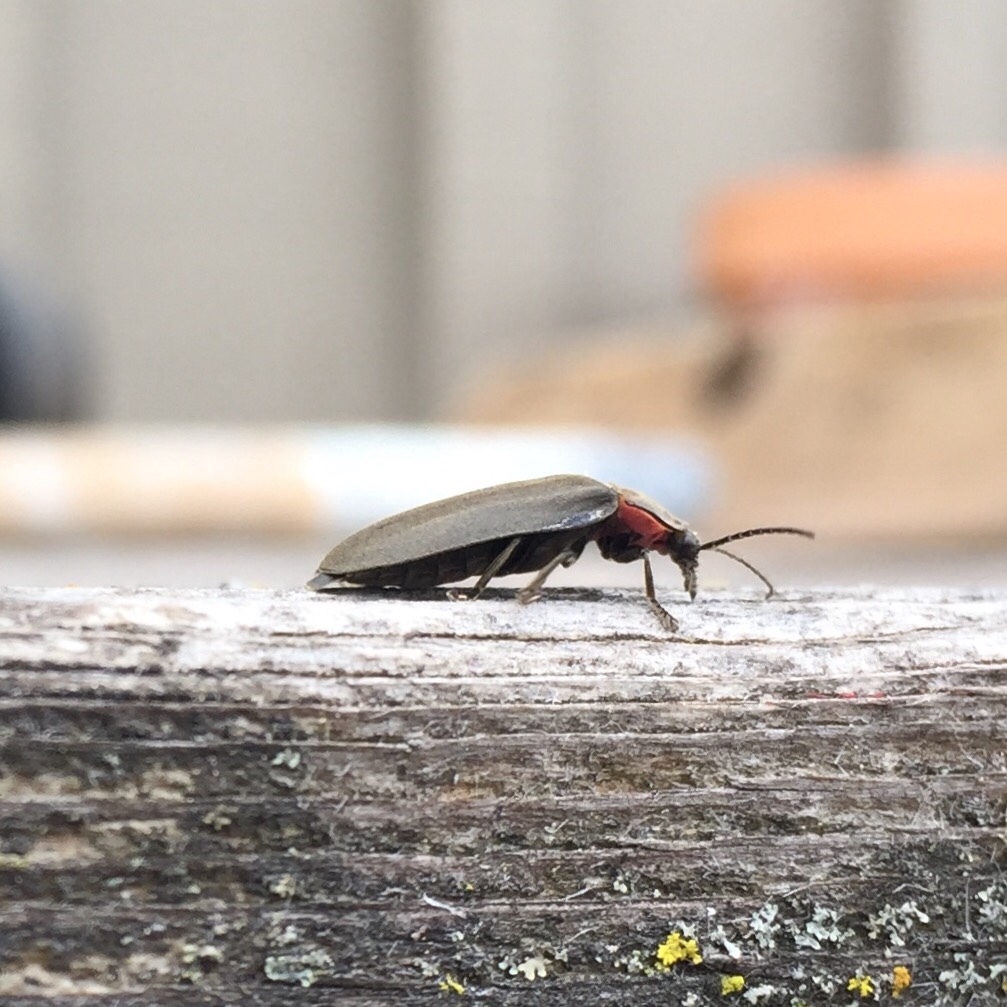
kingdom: Animalia
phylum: Arthropoda
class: Insecta
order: Coleoptera
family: Lampyridae
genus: Photinus
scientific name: Photinus corrusca
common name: Winter firefly
